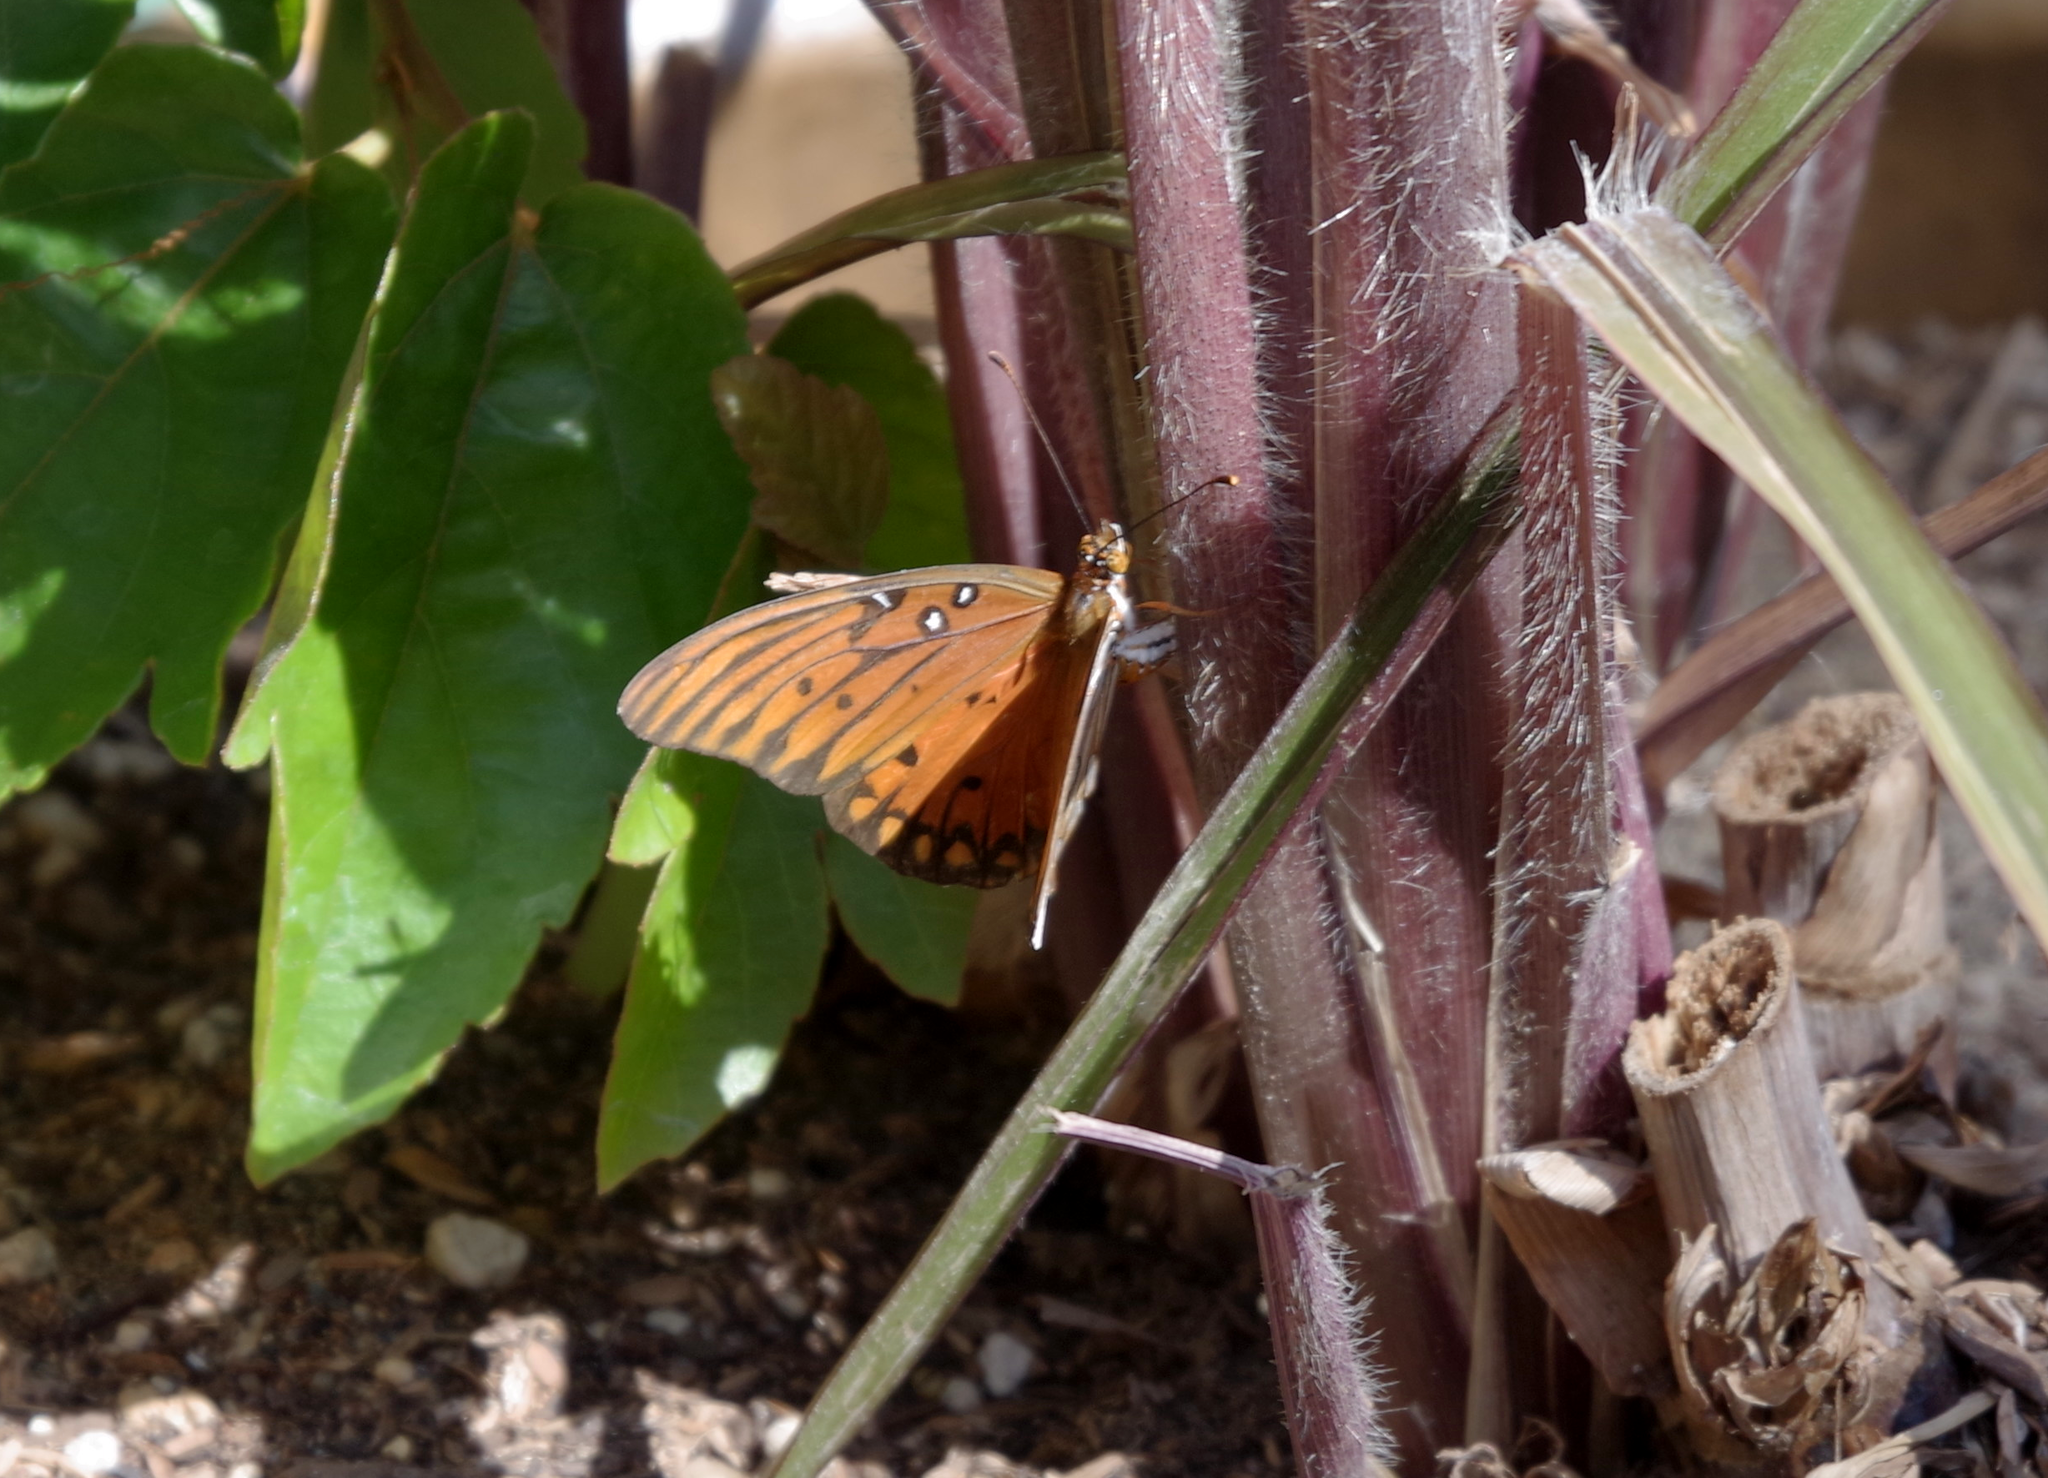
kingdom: Animalia
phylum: Arthropoda
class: Insecta
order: Lepidoptera
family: Nymphalidae
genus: Dione
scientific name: Dione vanillae
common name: Gulf fritillary
